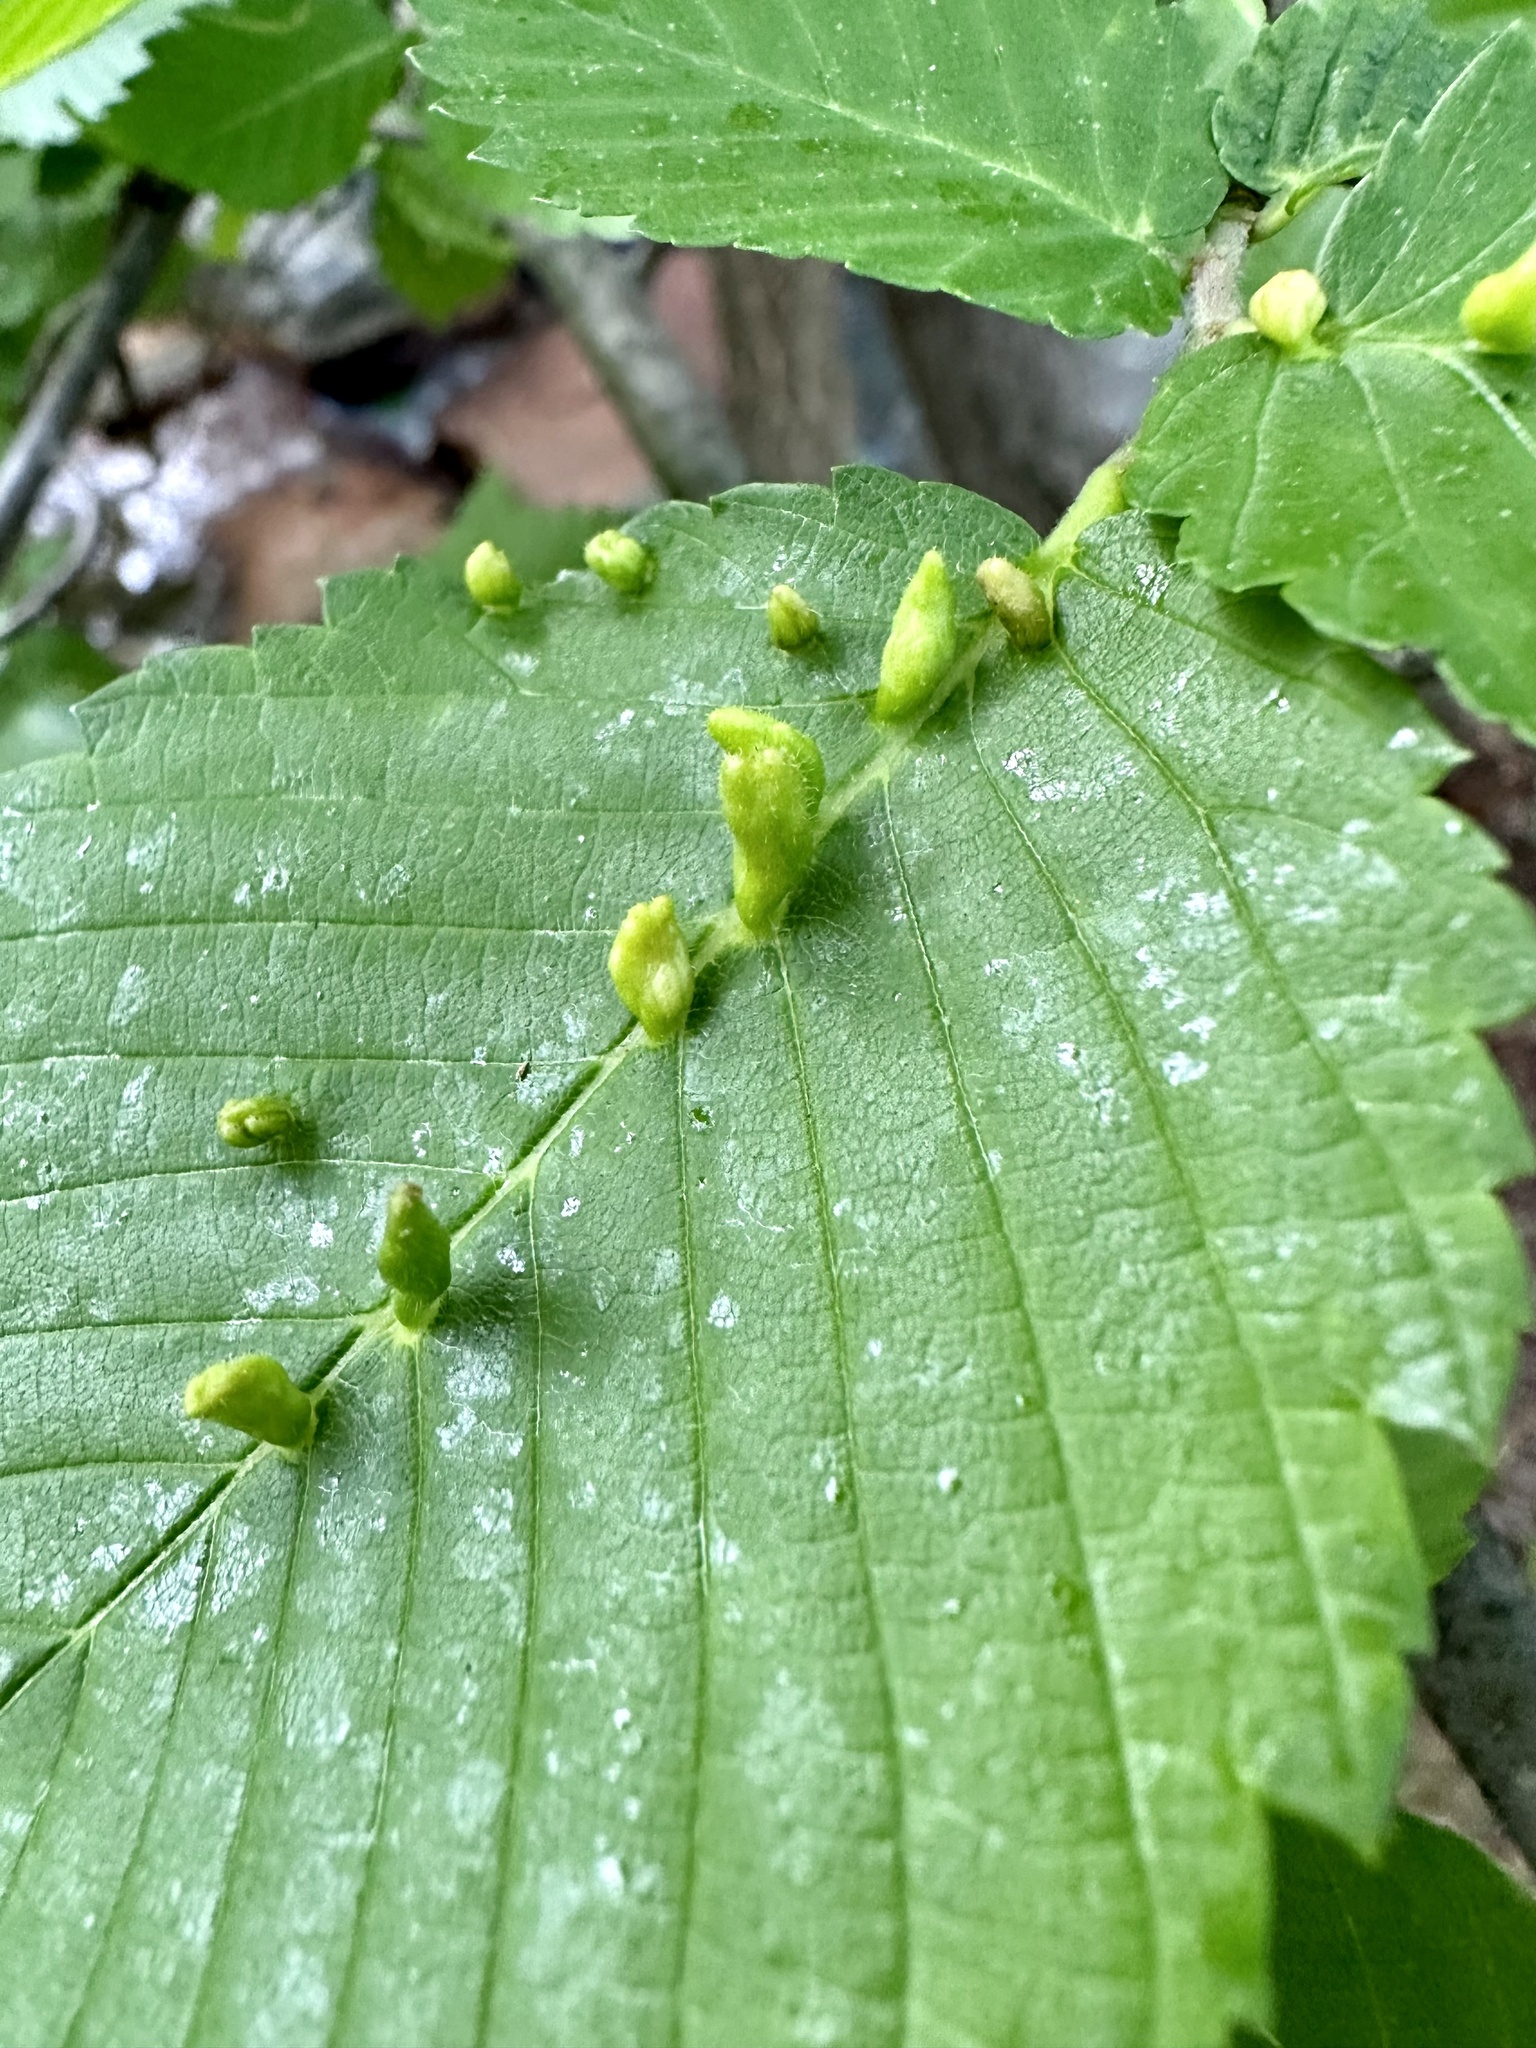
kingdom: Animalia
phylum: Arthropoda
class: Arachnida
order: Trombidiformes
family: Eriophyidae
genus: Aceria
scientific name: Aceria
